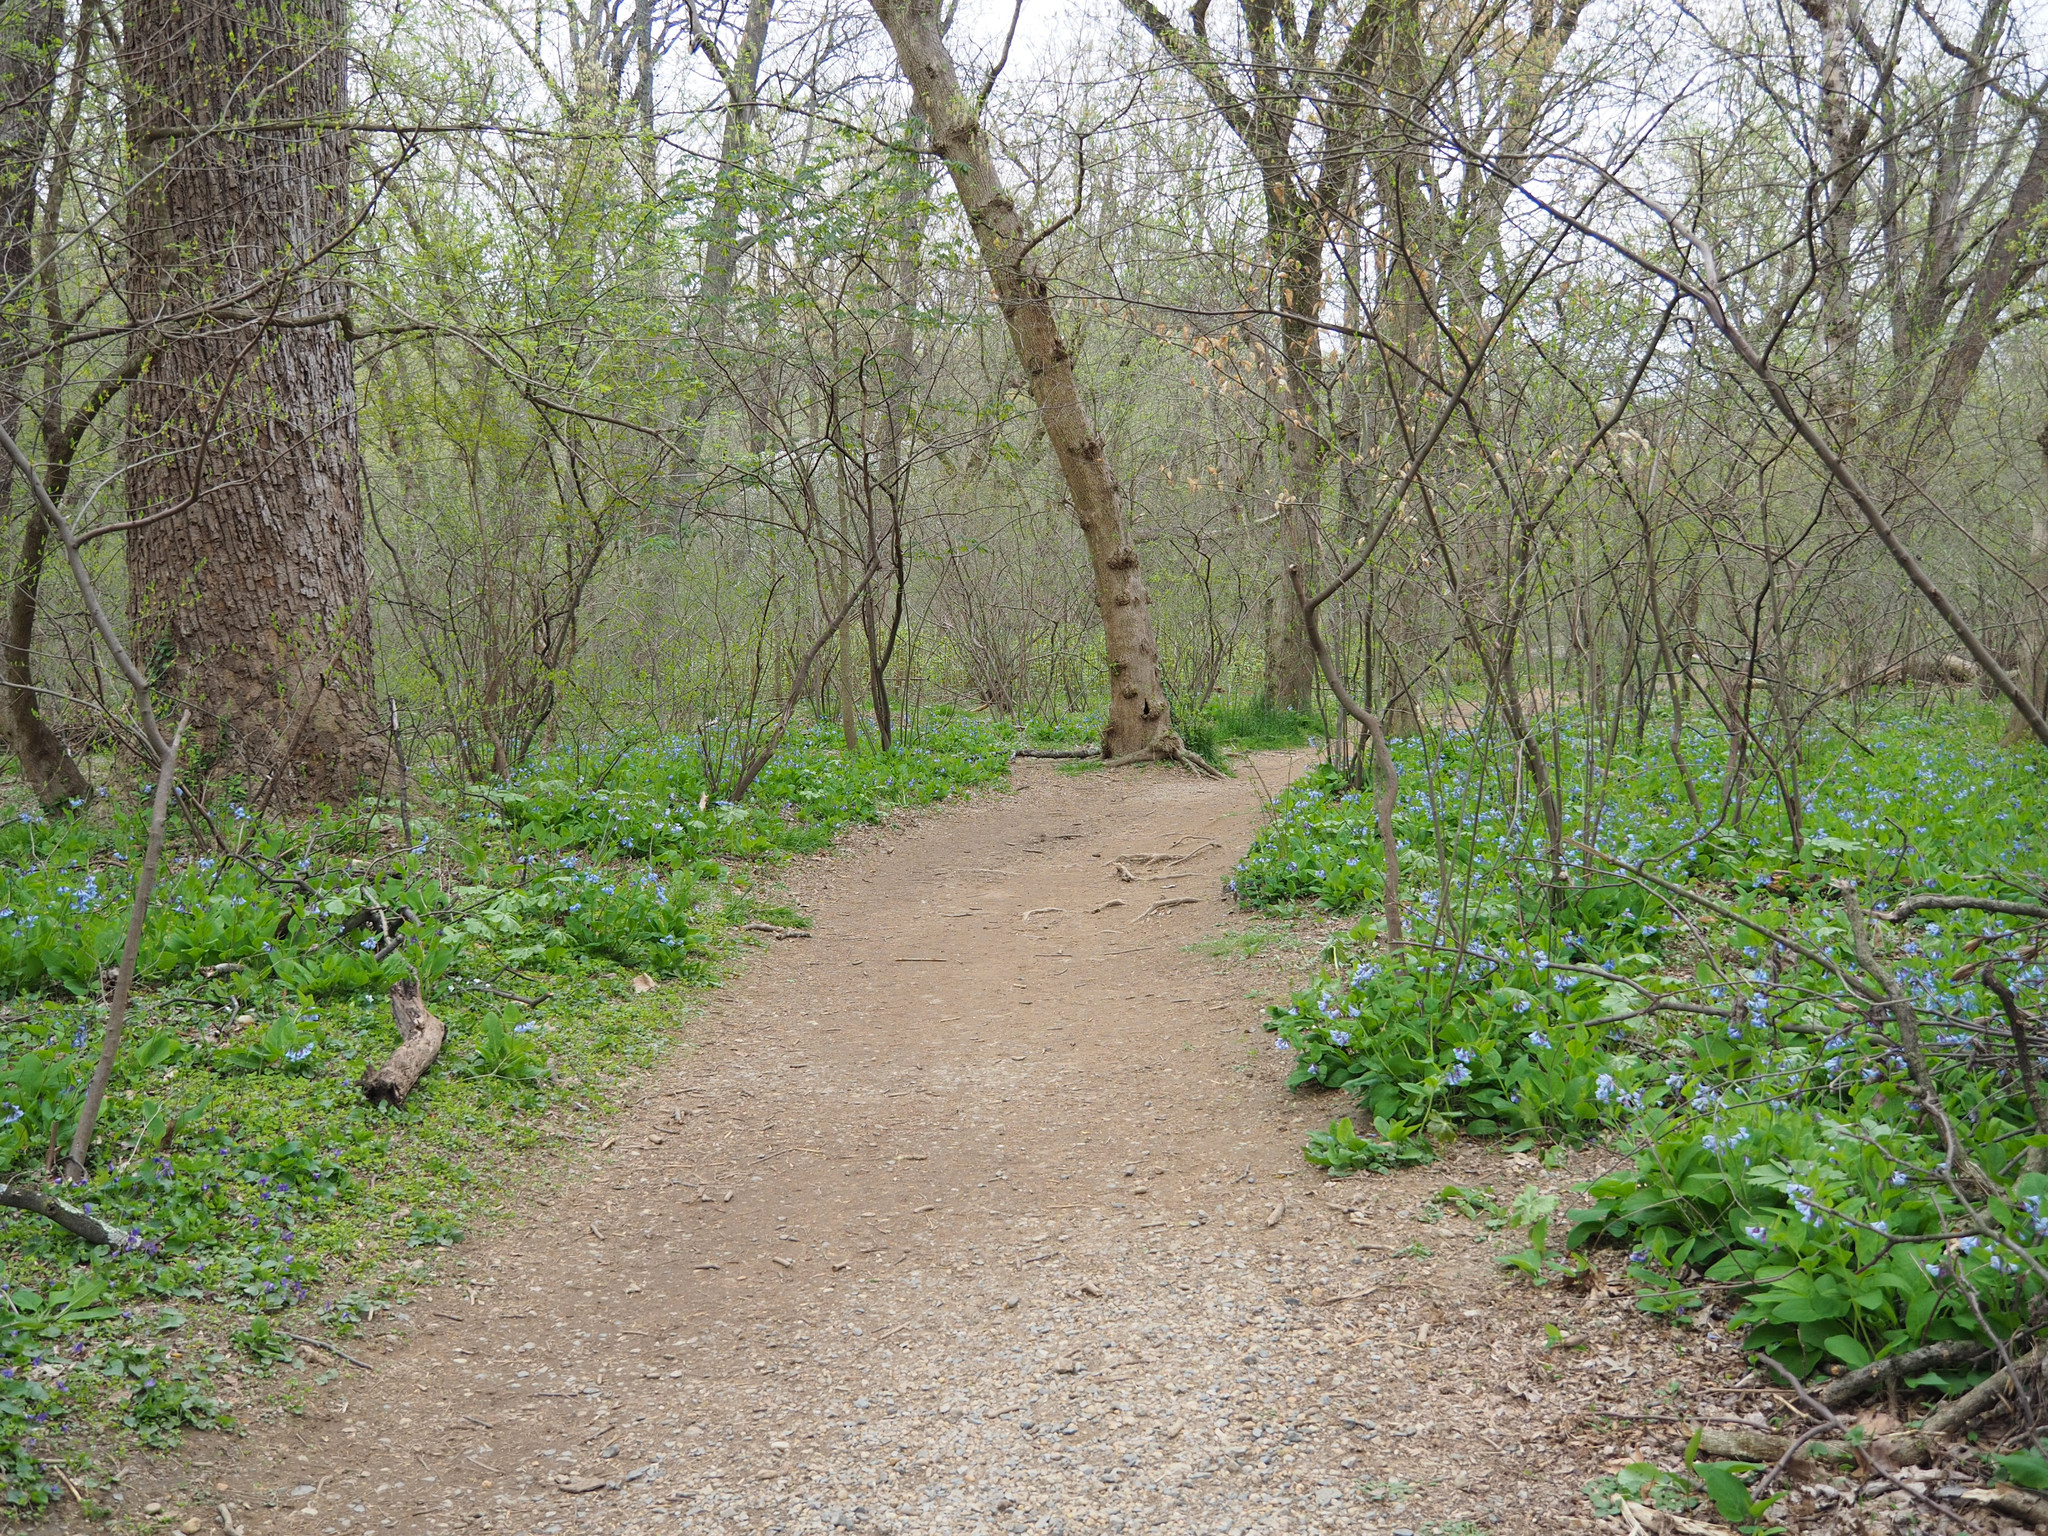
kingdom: Plantae
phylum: Tracheophyta
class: Magnoliopsida
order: Boraginales
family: Boraginaceae
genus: Mertensia
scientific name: Mertensia virginica
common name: Virginia bluebells
